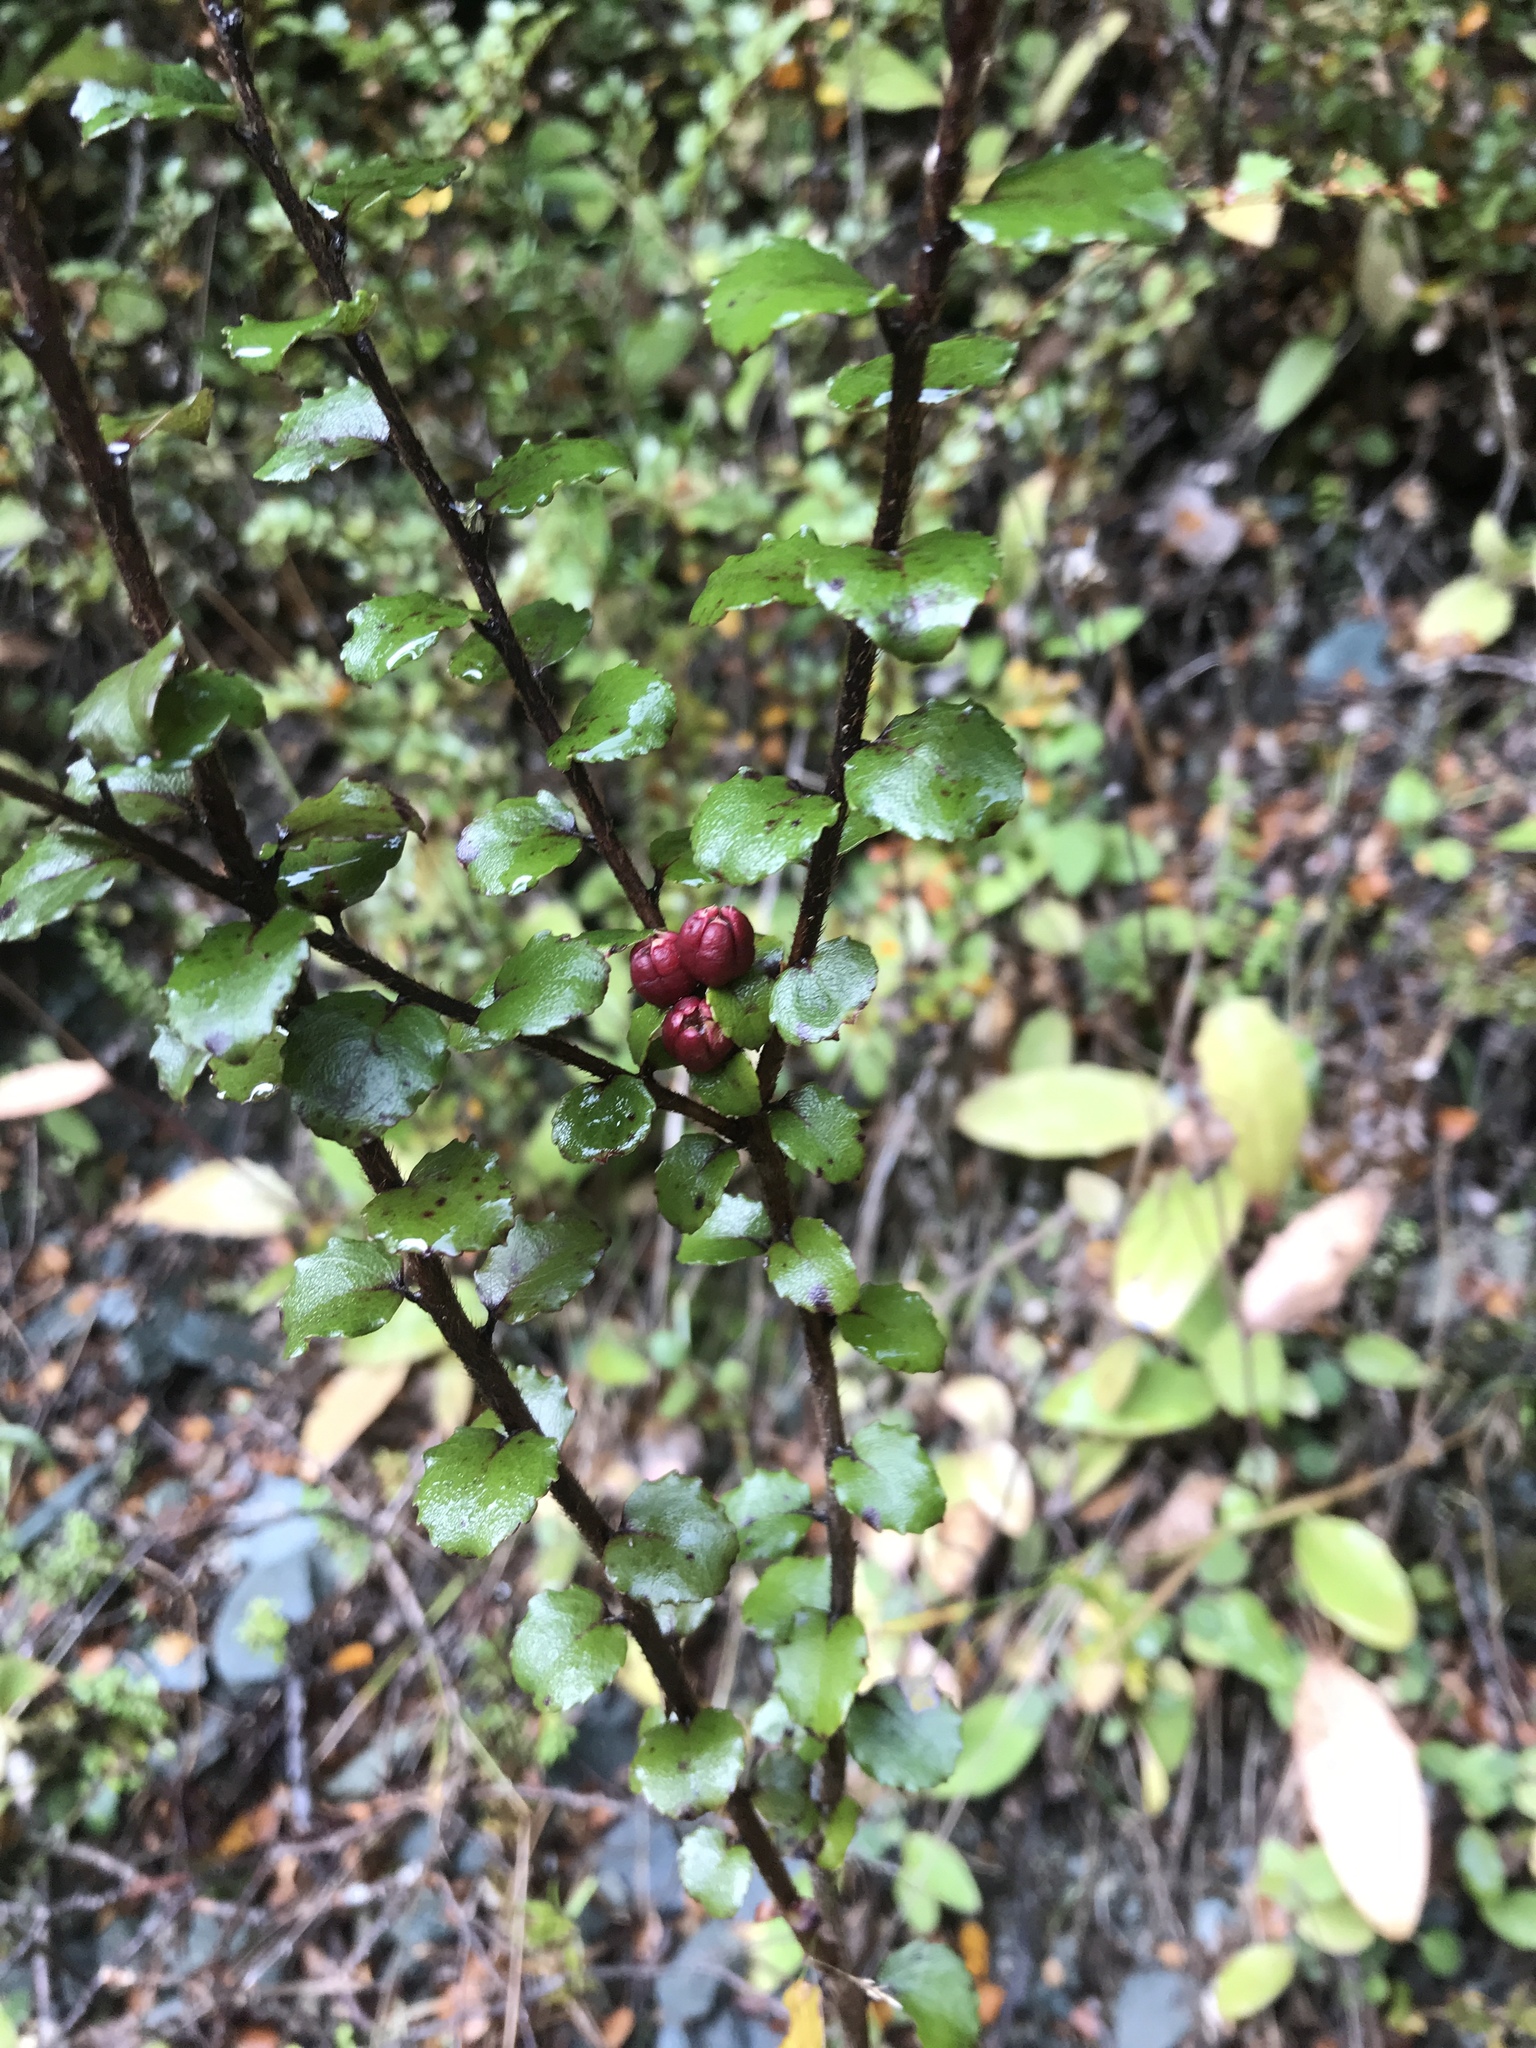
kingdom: Plantae
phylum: Tracheophyta
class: Magnoliopsida
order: Ericales
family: Ericaceae
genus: Gaultheria
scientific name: Gaultheria antipoda
